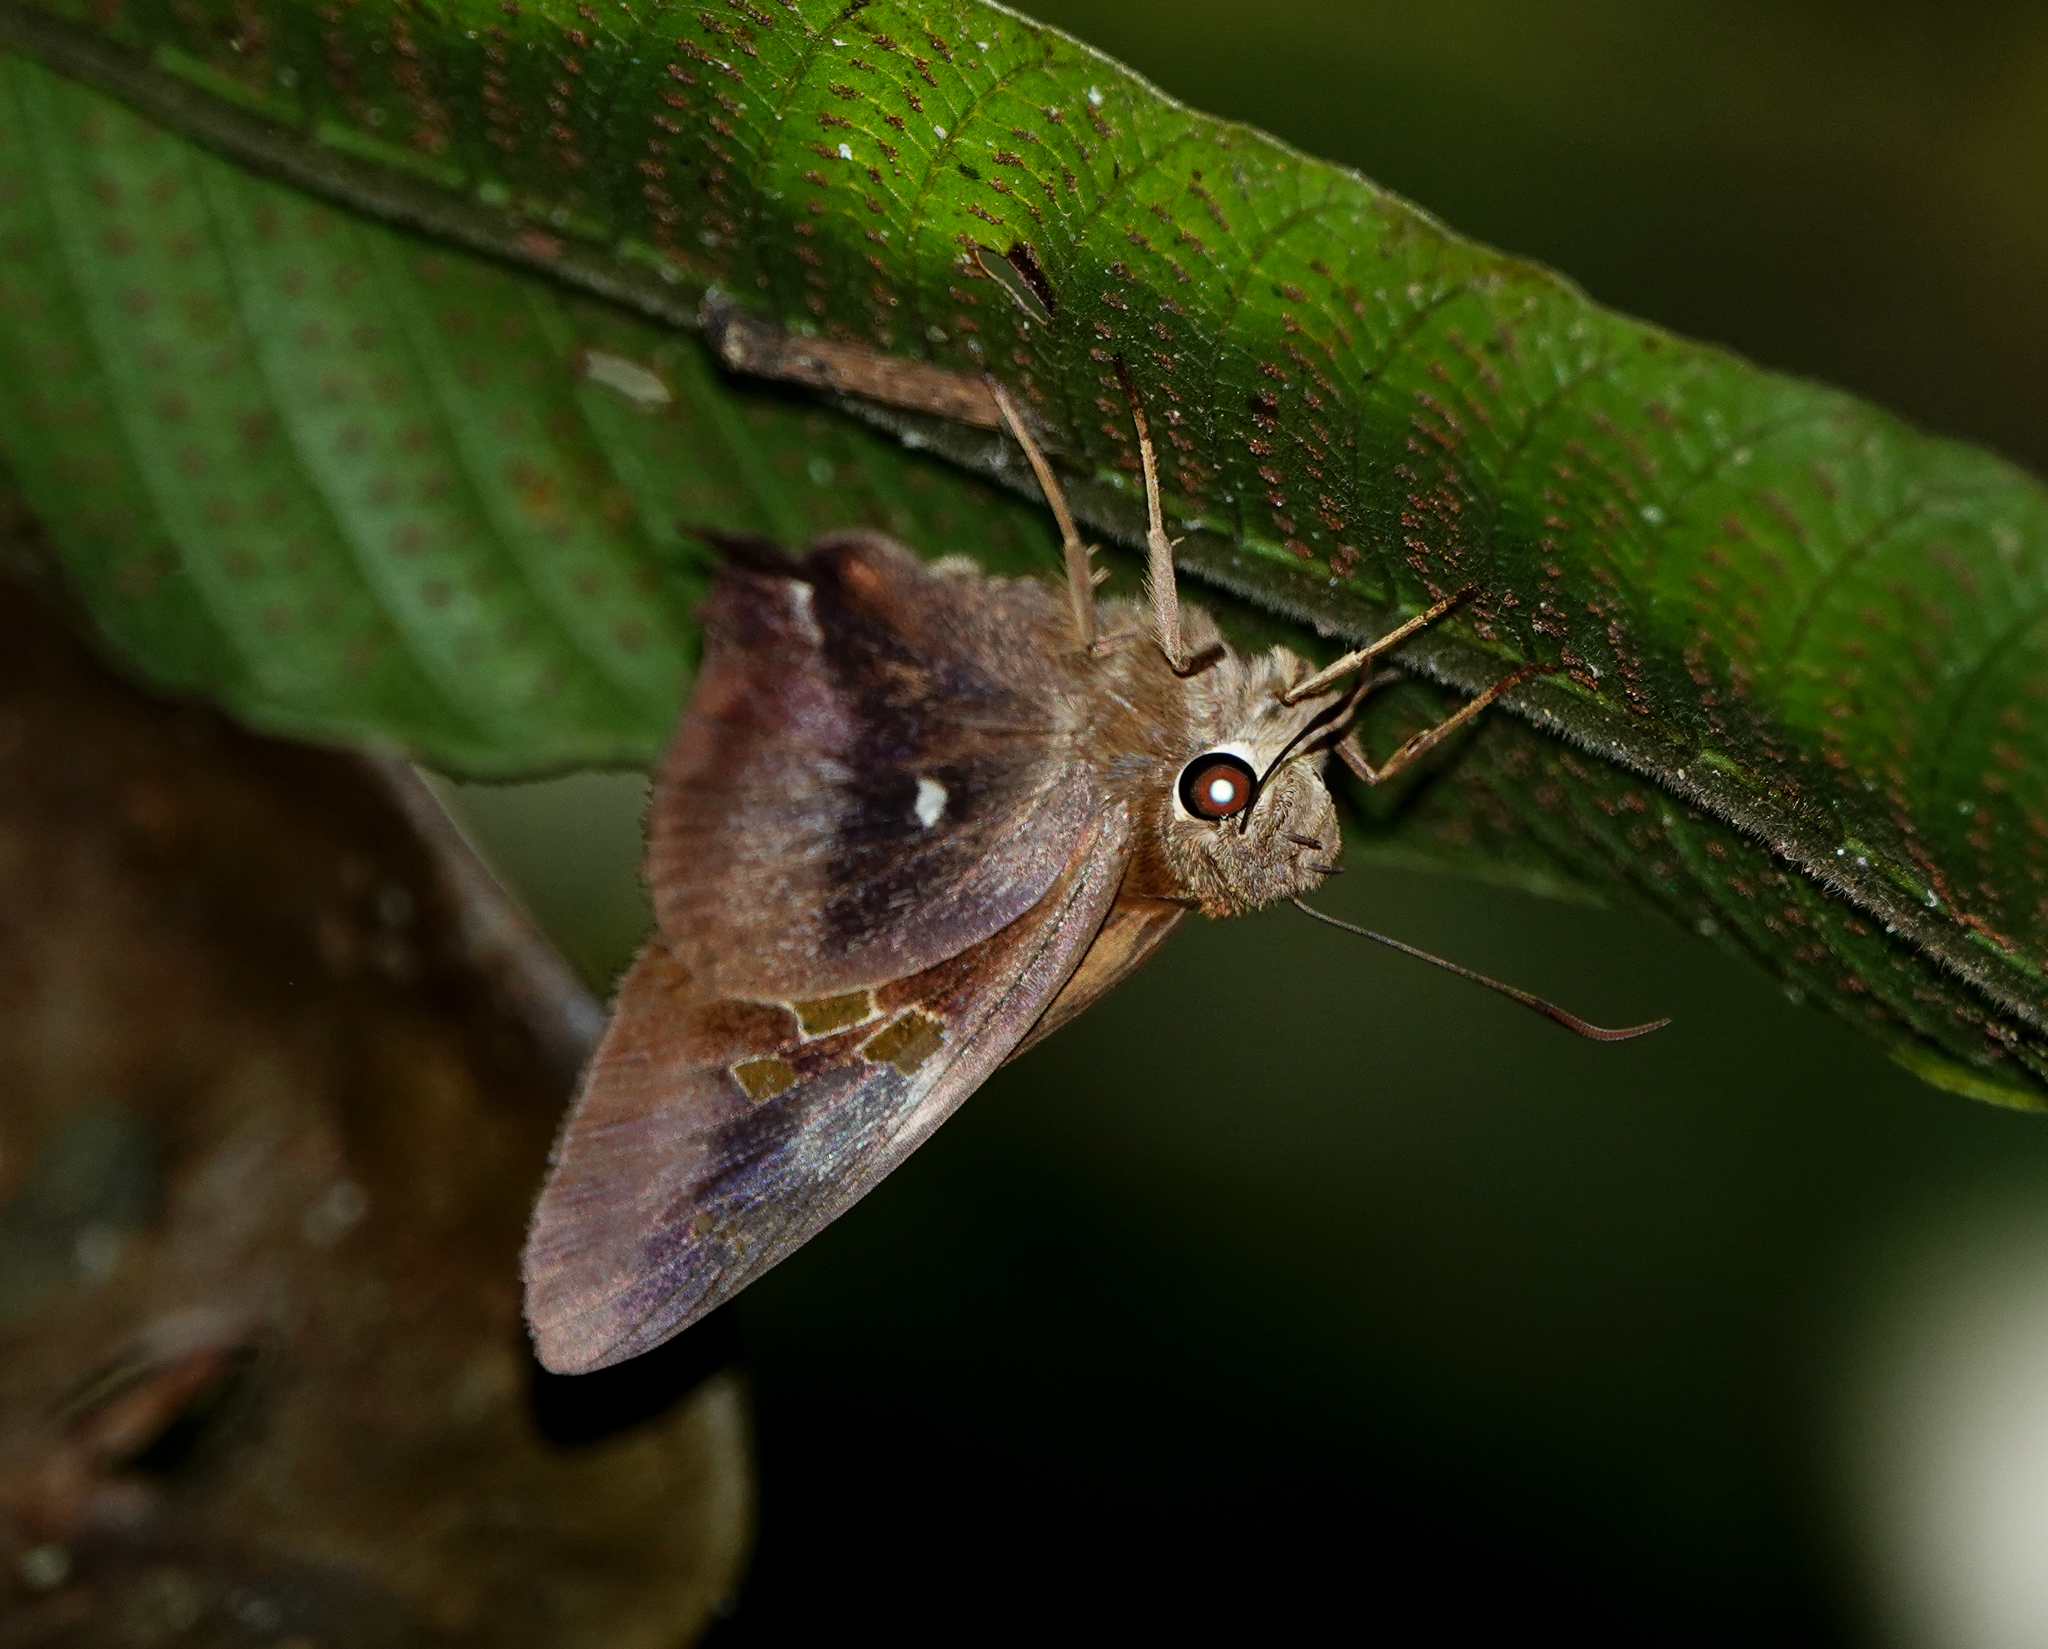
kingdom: Animalia
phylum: Arthropoda
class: Insecta
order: Lepidoptera
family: Hesperiidae
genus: Hasora
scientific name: Hasora badra
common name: Common awl
